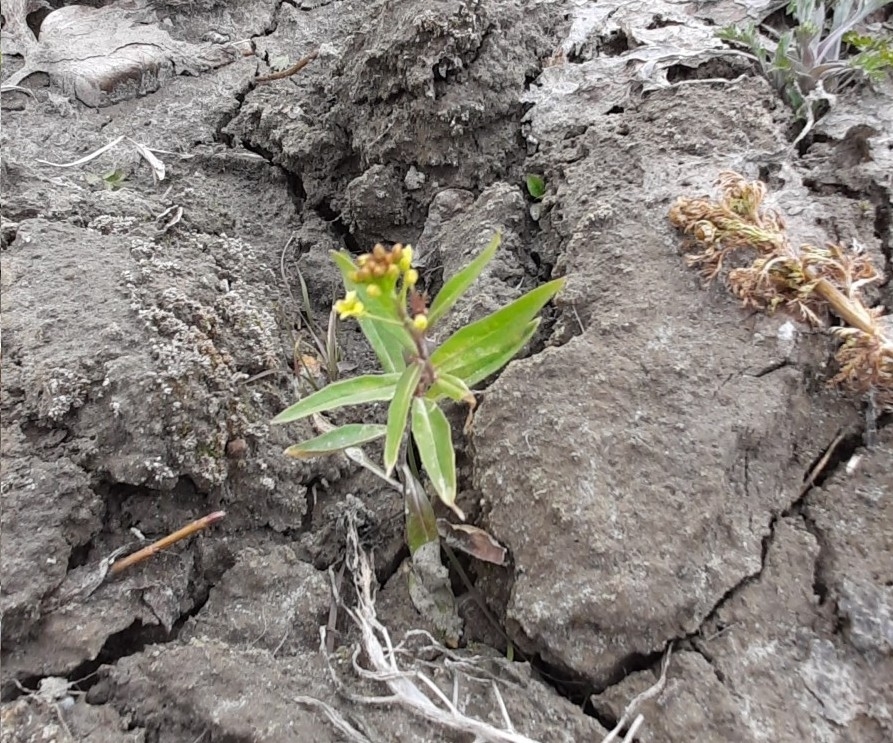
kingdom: Plantae
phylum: Tracheophyta
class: Magnoliopsida
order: Brassicales
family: Brassicaceae
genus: Erysimum
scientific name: Erysimum cheiranthoides
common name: Treacle mustard
